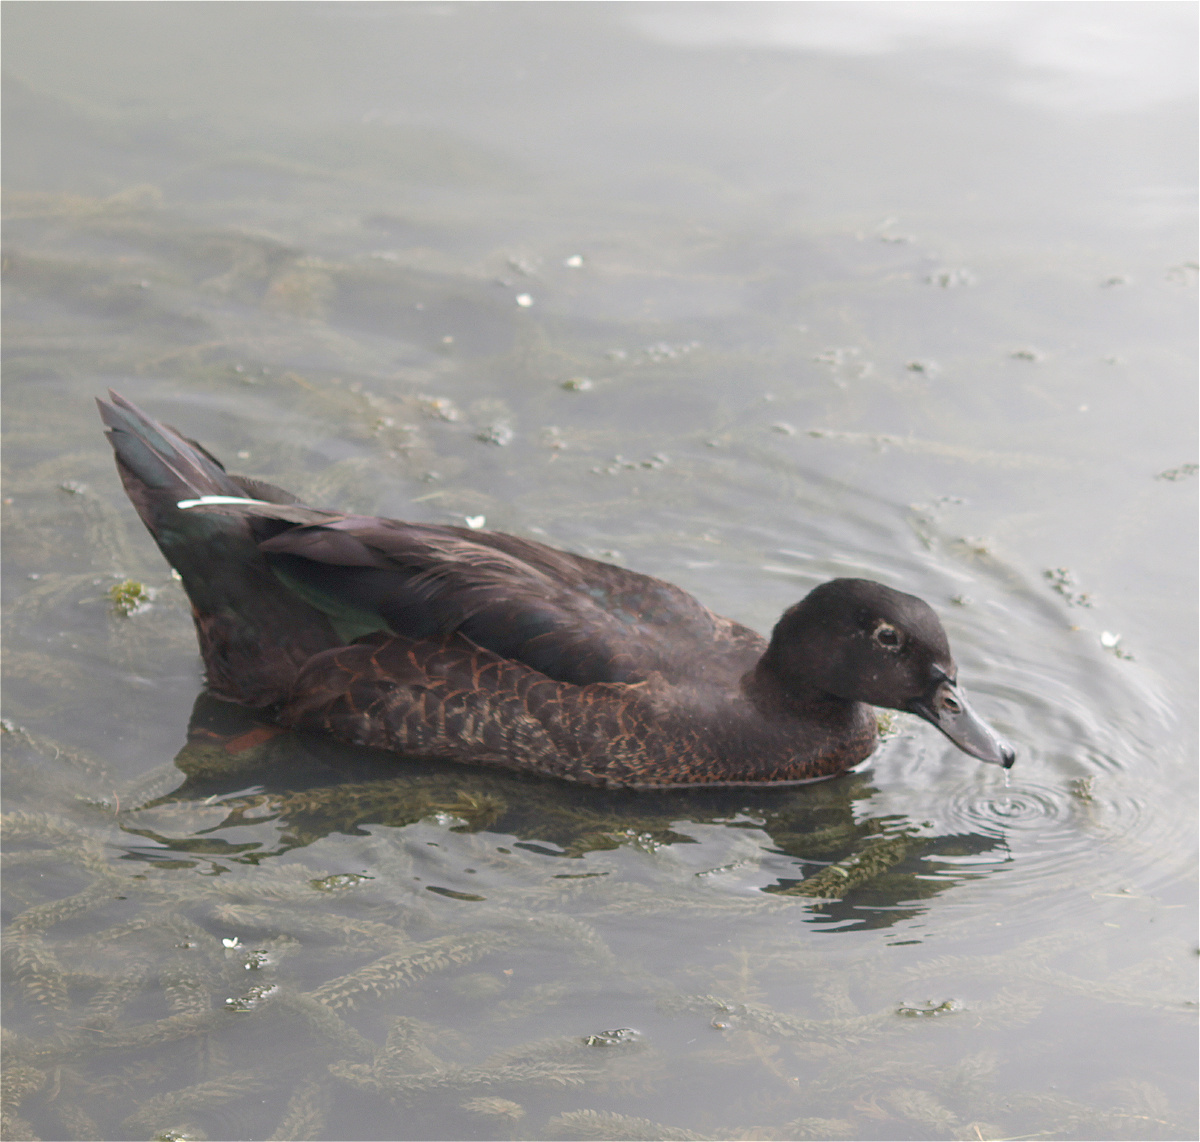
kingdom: Animalia
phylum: Chordata
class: Aves
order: Anseriformes
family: Anatidae
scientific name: Anatidae
